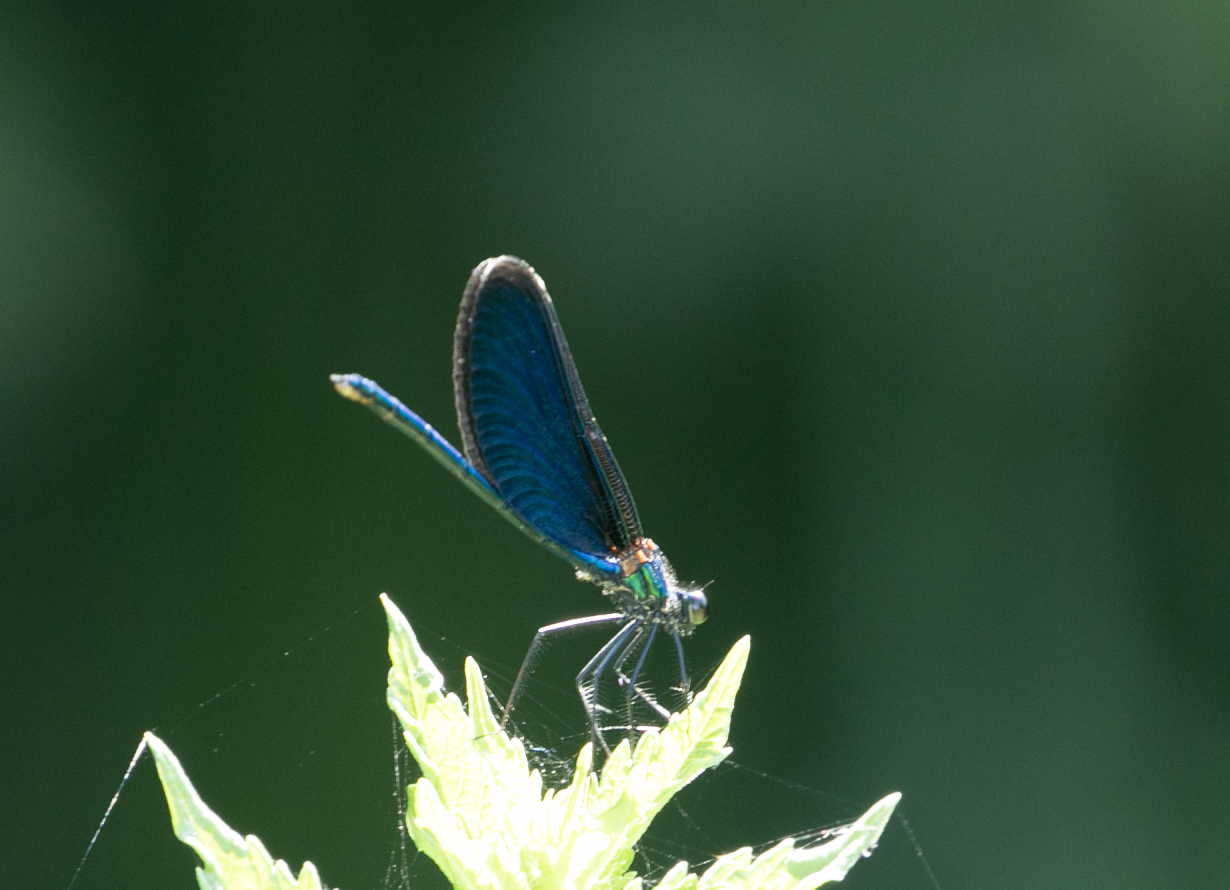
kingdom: Animalia
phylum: Arthropoda
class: Insecta
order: Odonata
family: Calopterygidae
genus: Calopteryx
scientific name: Calopteryx virgo
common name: Beautiful demoiselle
